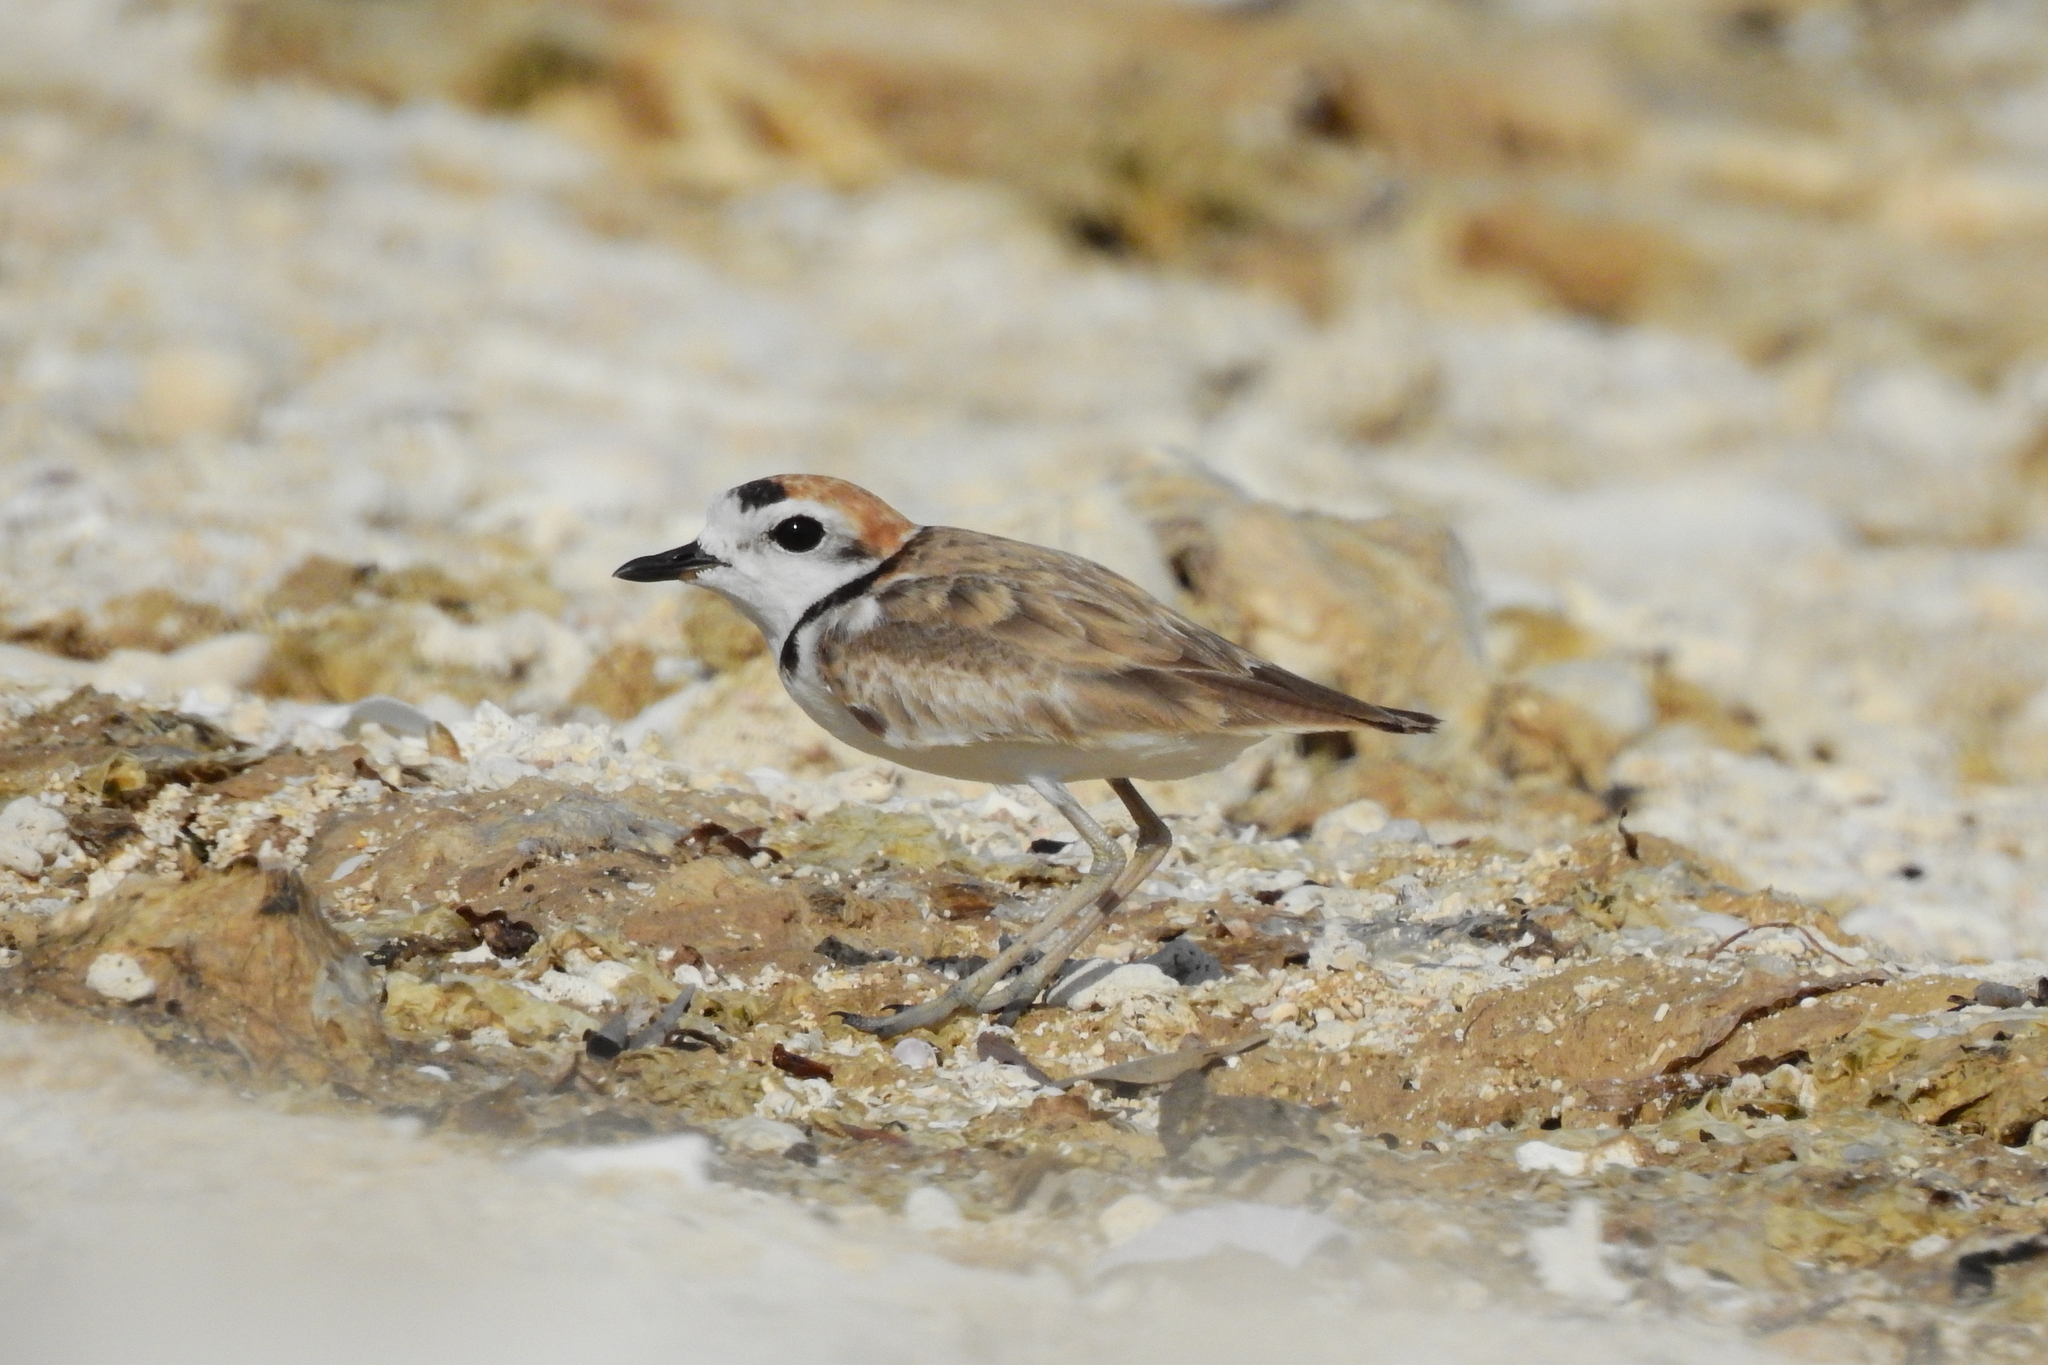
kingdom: Animalia
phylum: Chordata
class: Aves
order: Charadriiformes
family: Charadriidae
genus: Anarhynchus
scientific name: Anarhynchus
